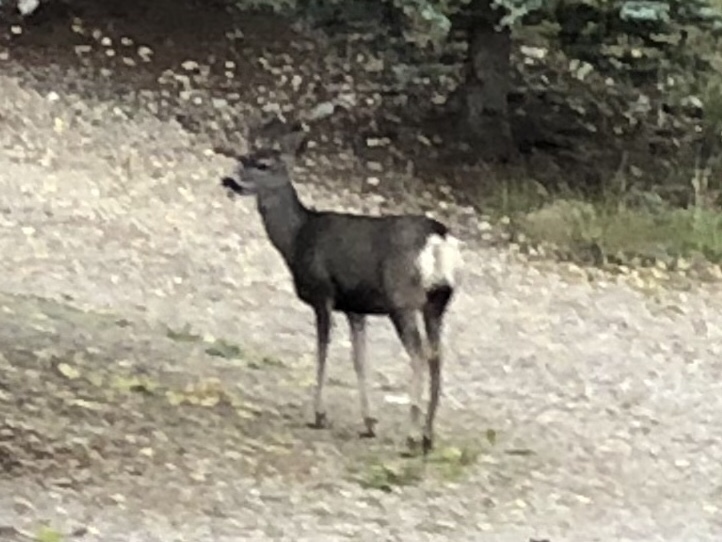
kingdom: Animalia
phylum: Chordata
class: Mammalia
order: Artiodactyla
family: Cervidae
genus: Odocoileus
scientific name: Odocoileus hemionus
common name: Mule deer
